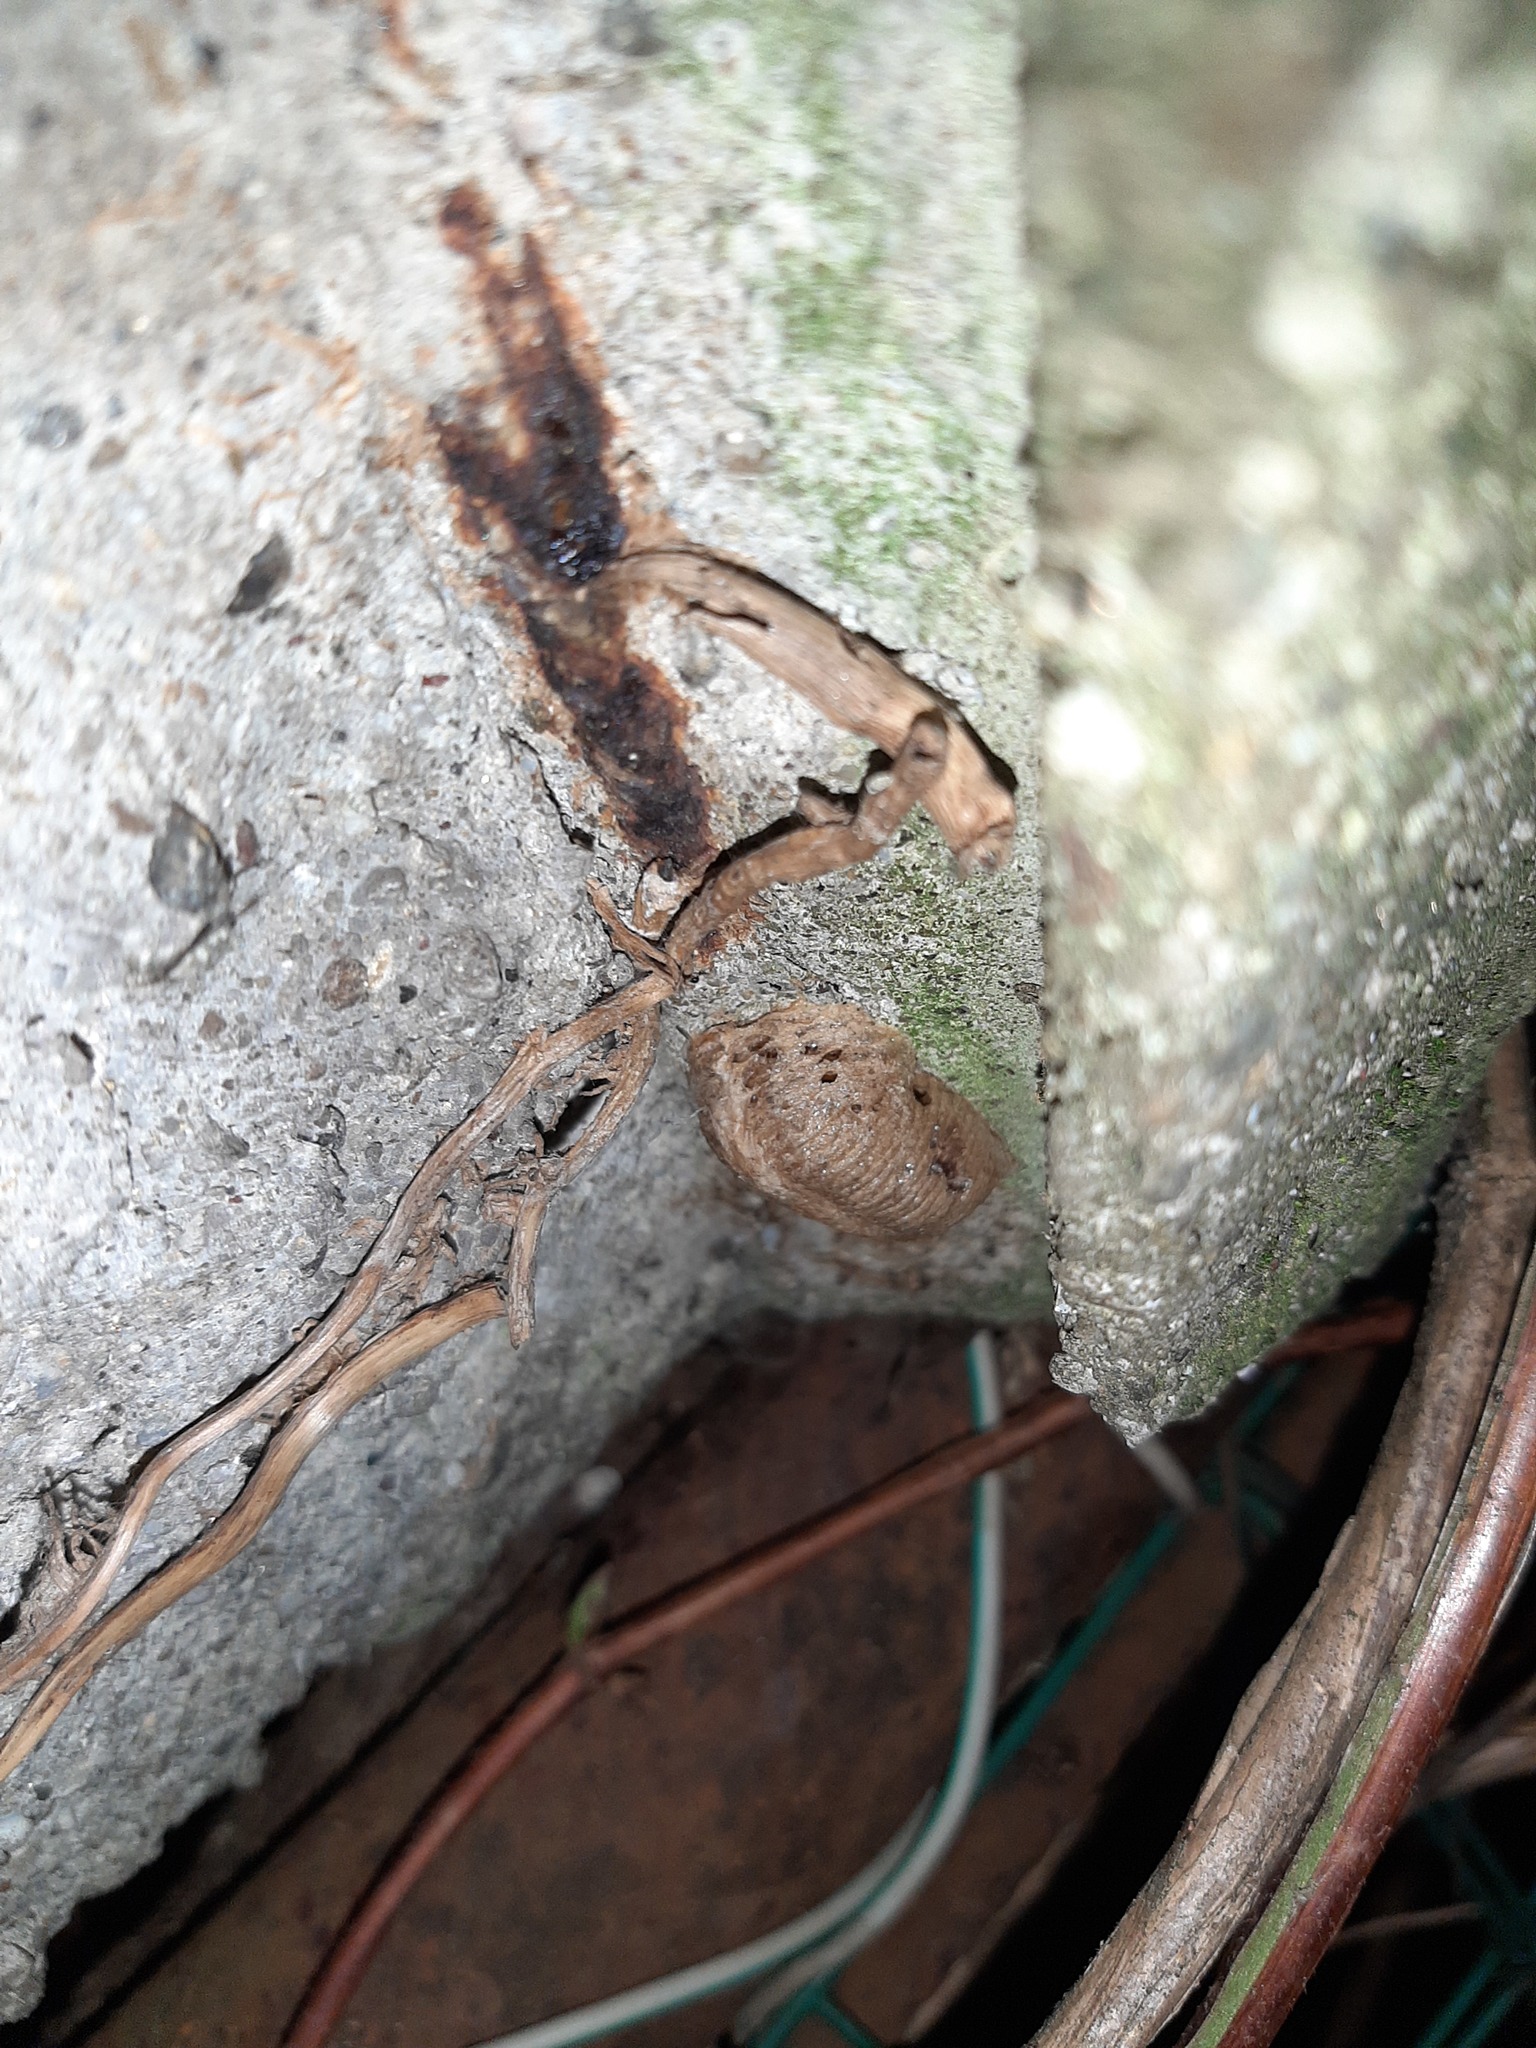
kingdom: Animalia
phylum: Arthropoda
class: Insecta
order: Mantodea
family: Mantidae
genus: Mantis
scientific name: Mantis religiosa
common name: Praying mantis
